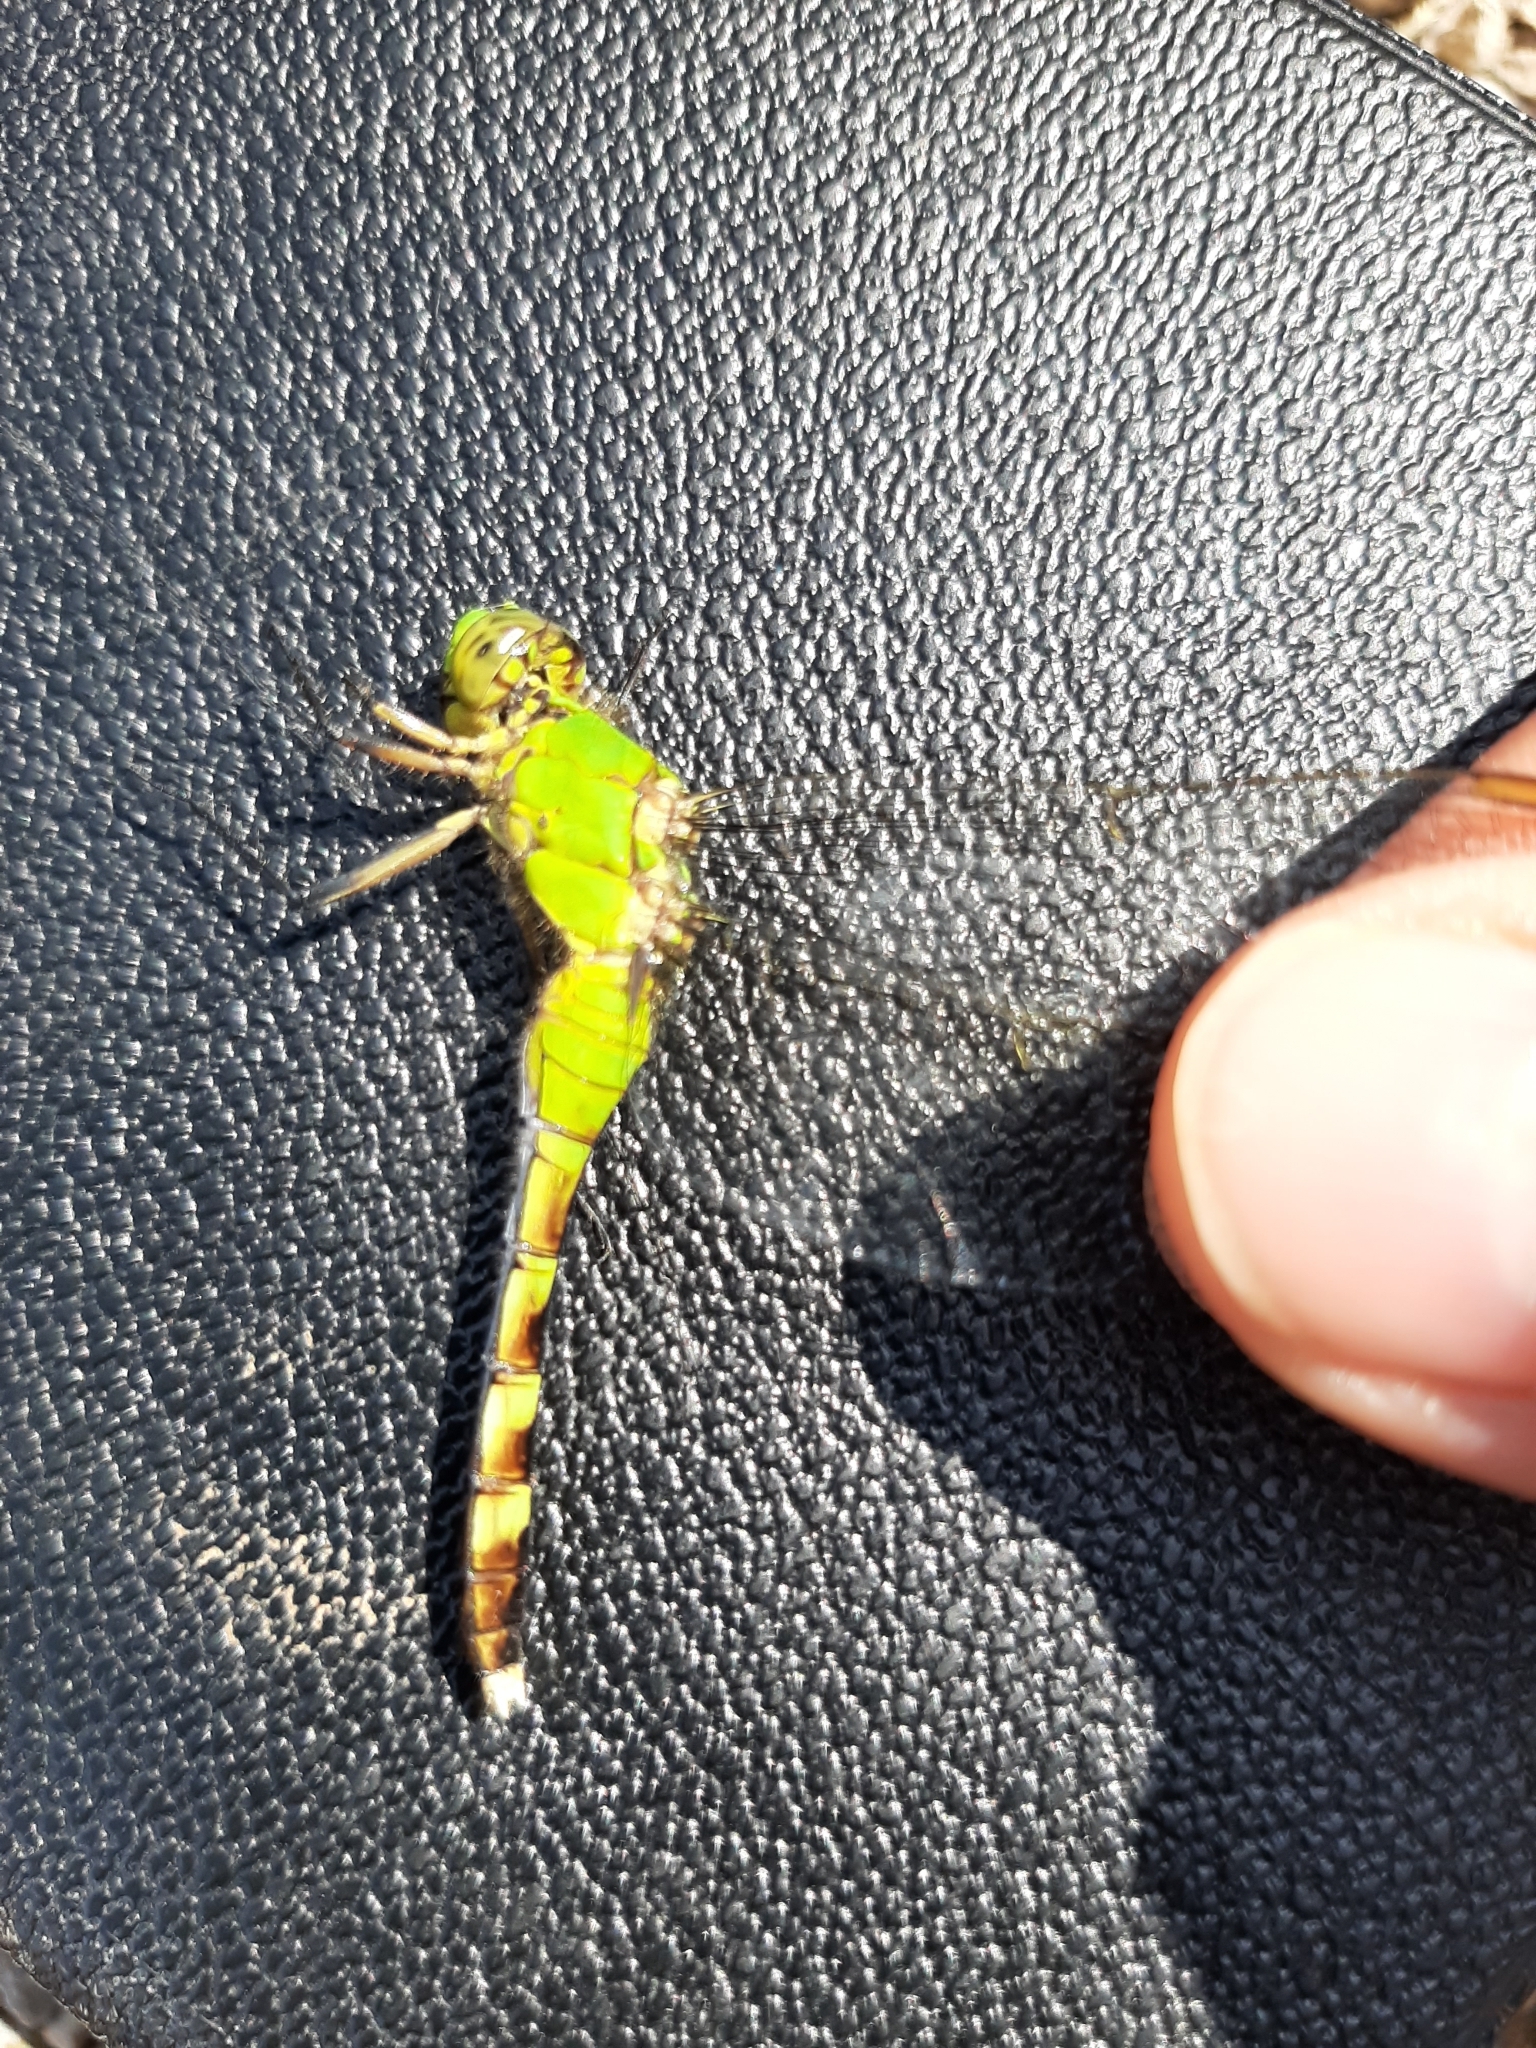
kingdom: Animalia
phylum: Arthropoda
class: Insecta
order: Odonata
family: Libellulidae
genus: Erythemis
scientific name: Erythemis simplicicollis
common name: Eastern pondhawk
